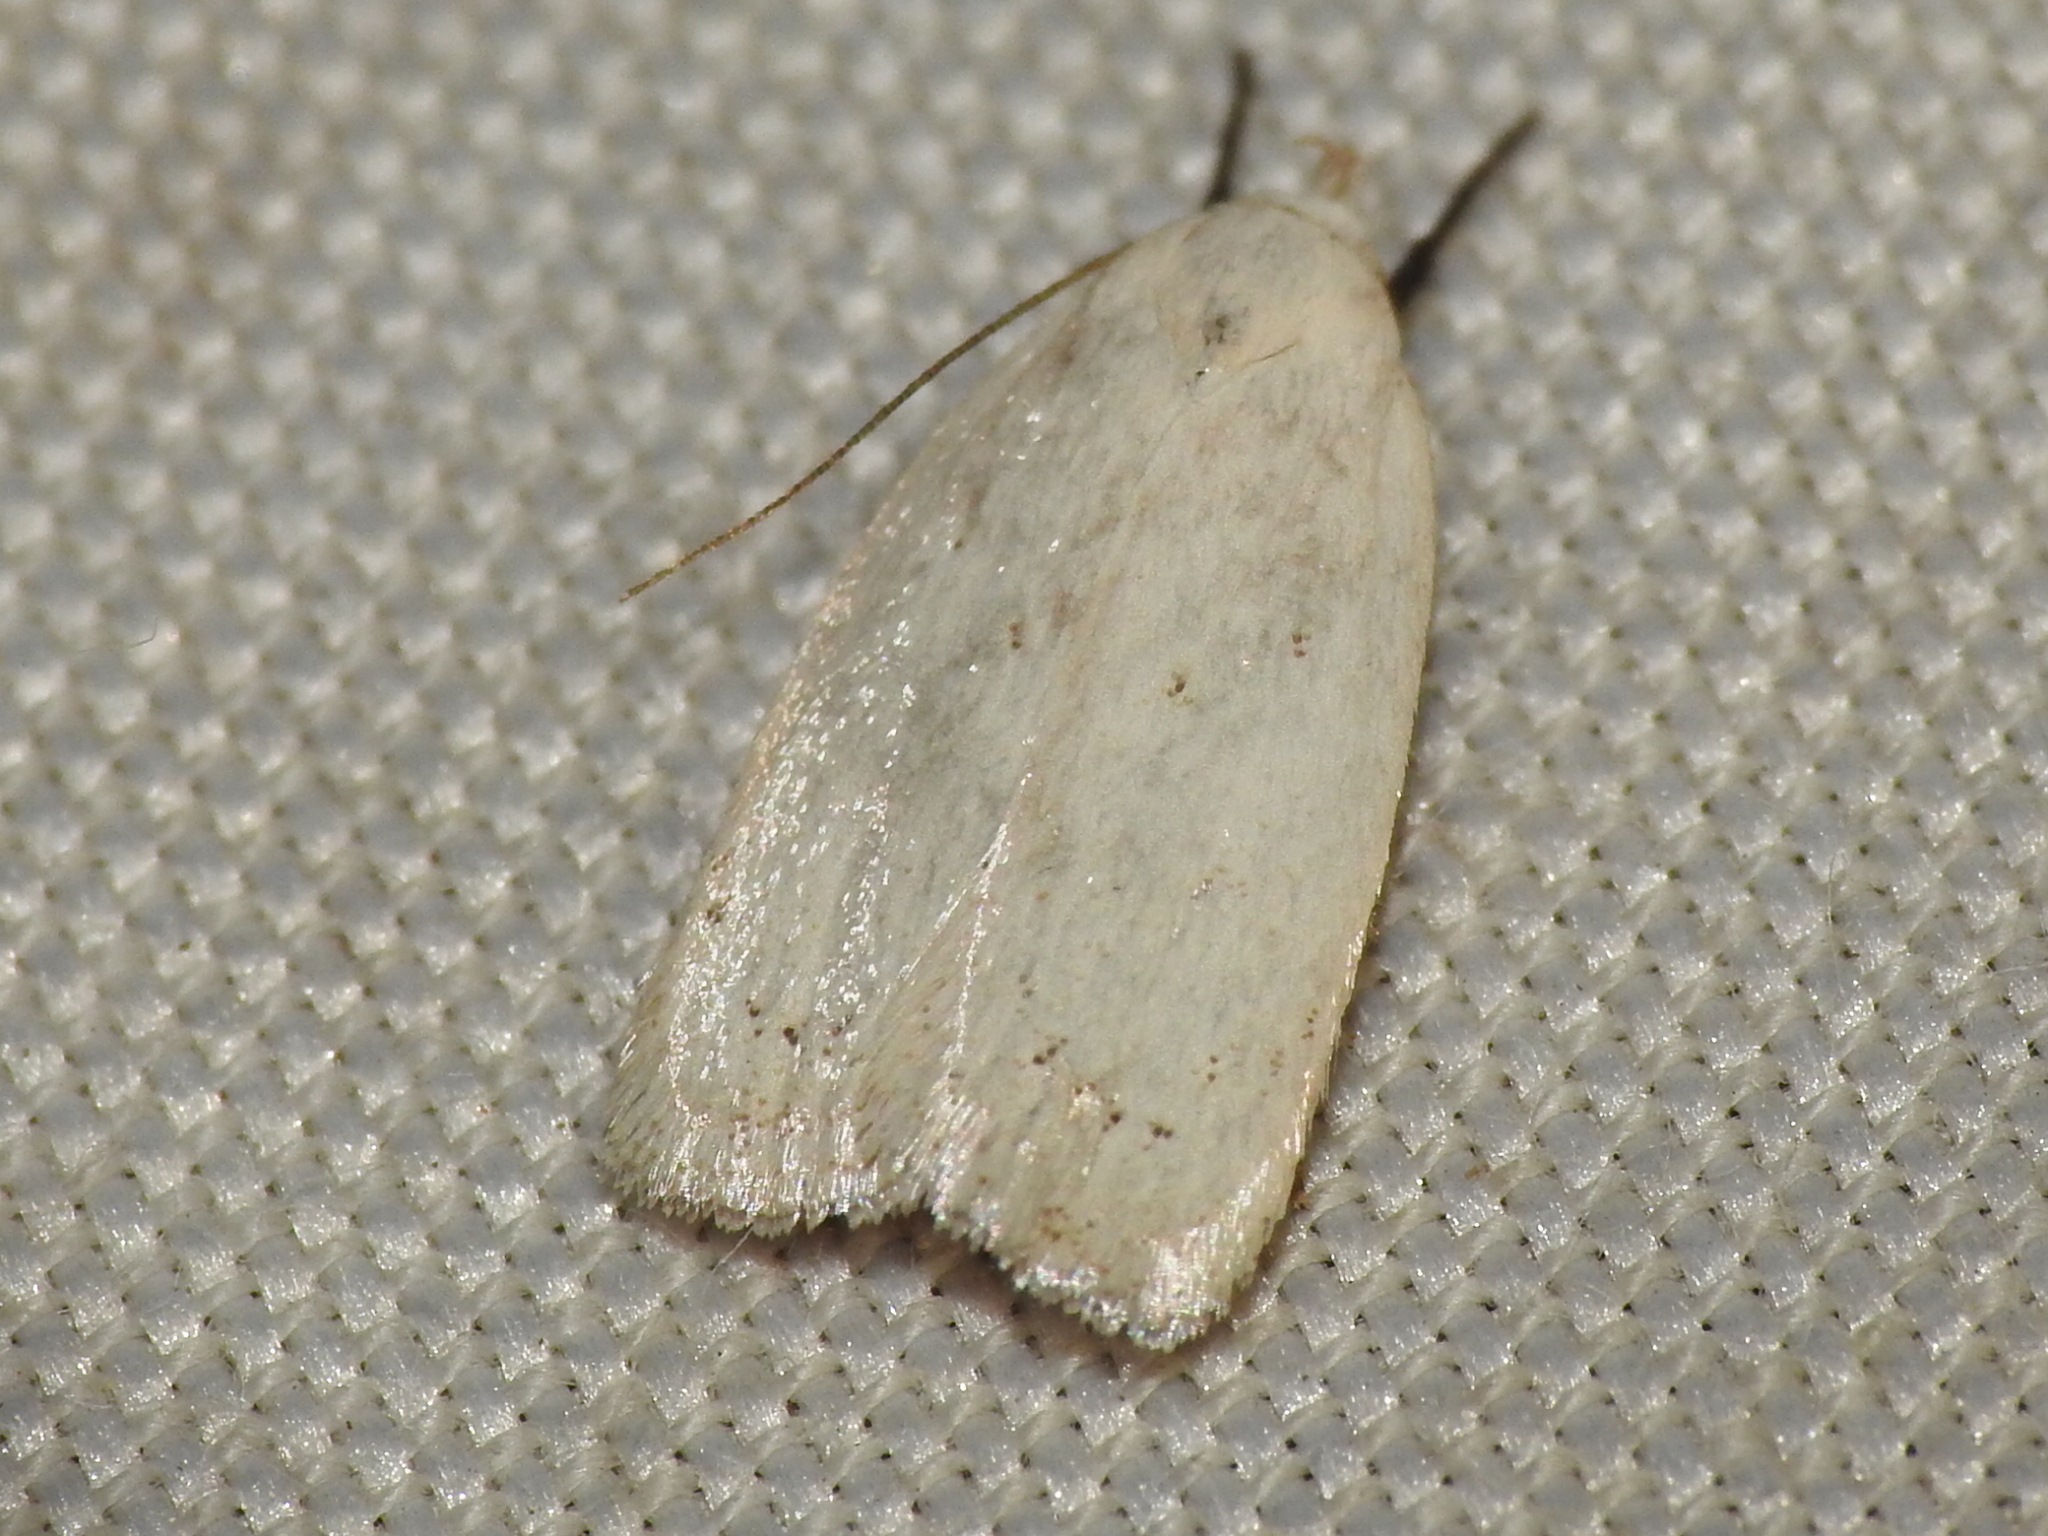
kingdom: Animalia
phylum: Arthropoda
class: Insecta
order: Lepidoptera
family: Oecophoridae
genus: Inga
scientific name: Inga cretacea
